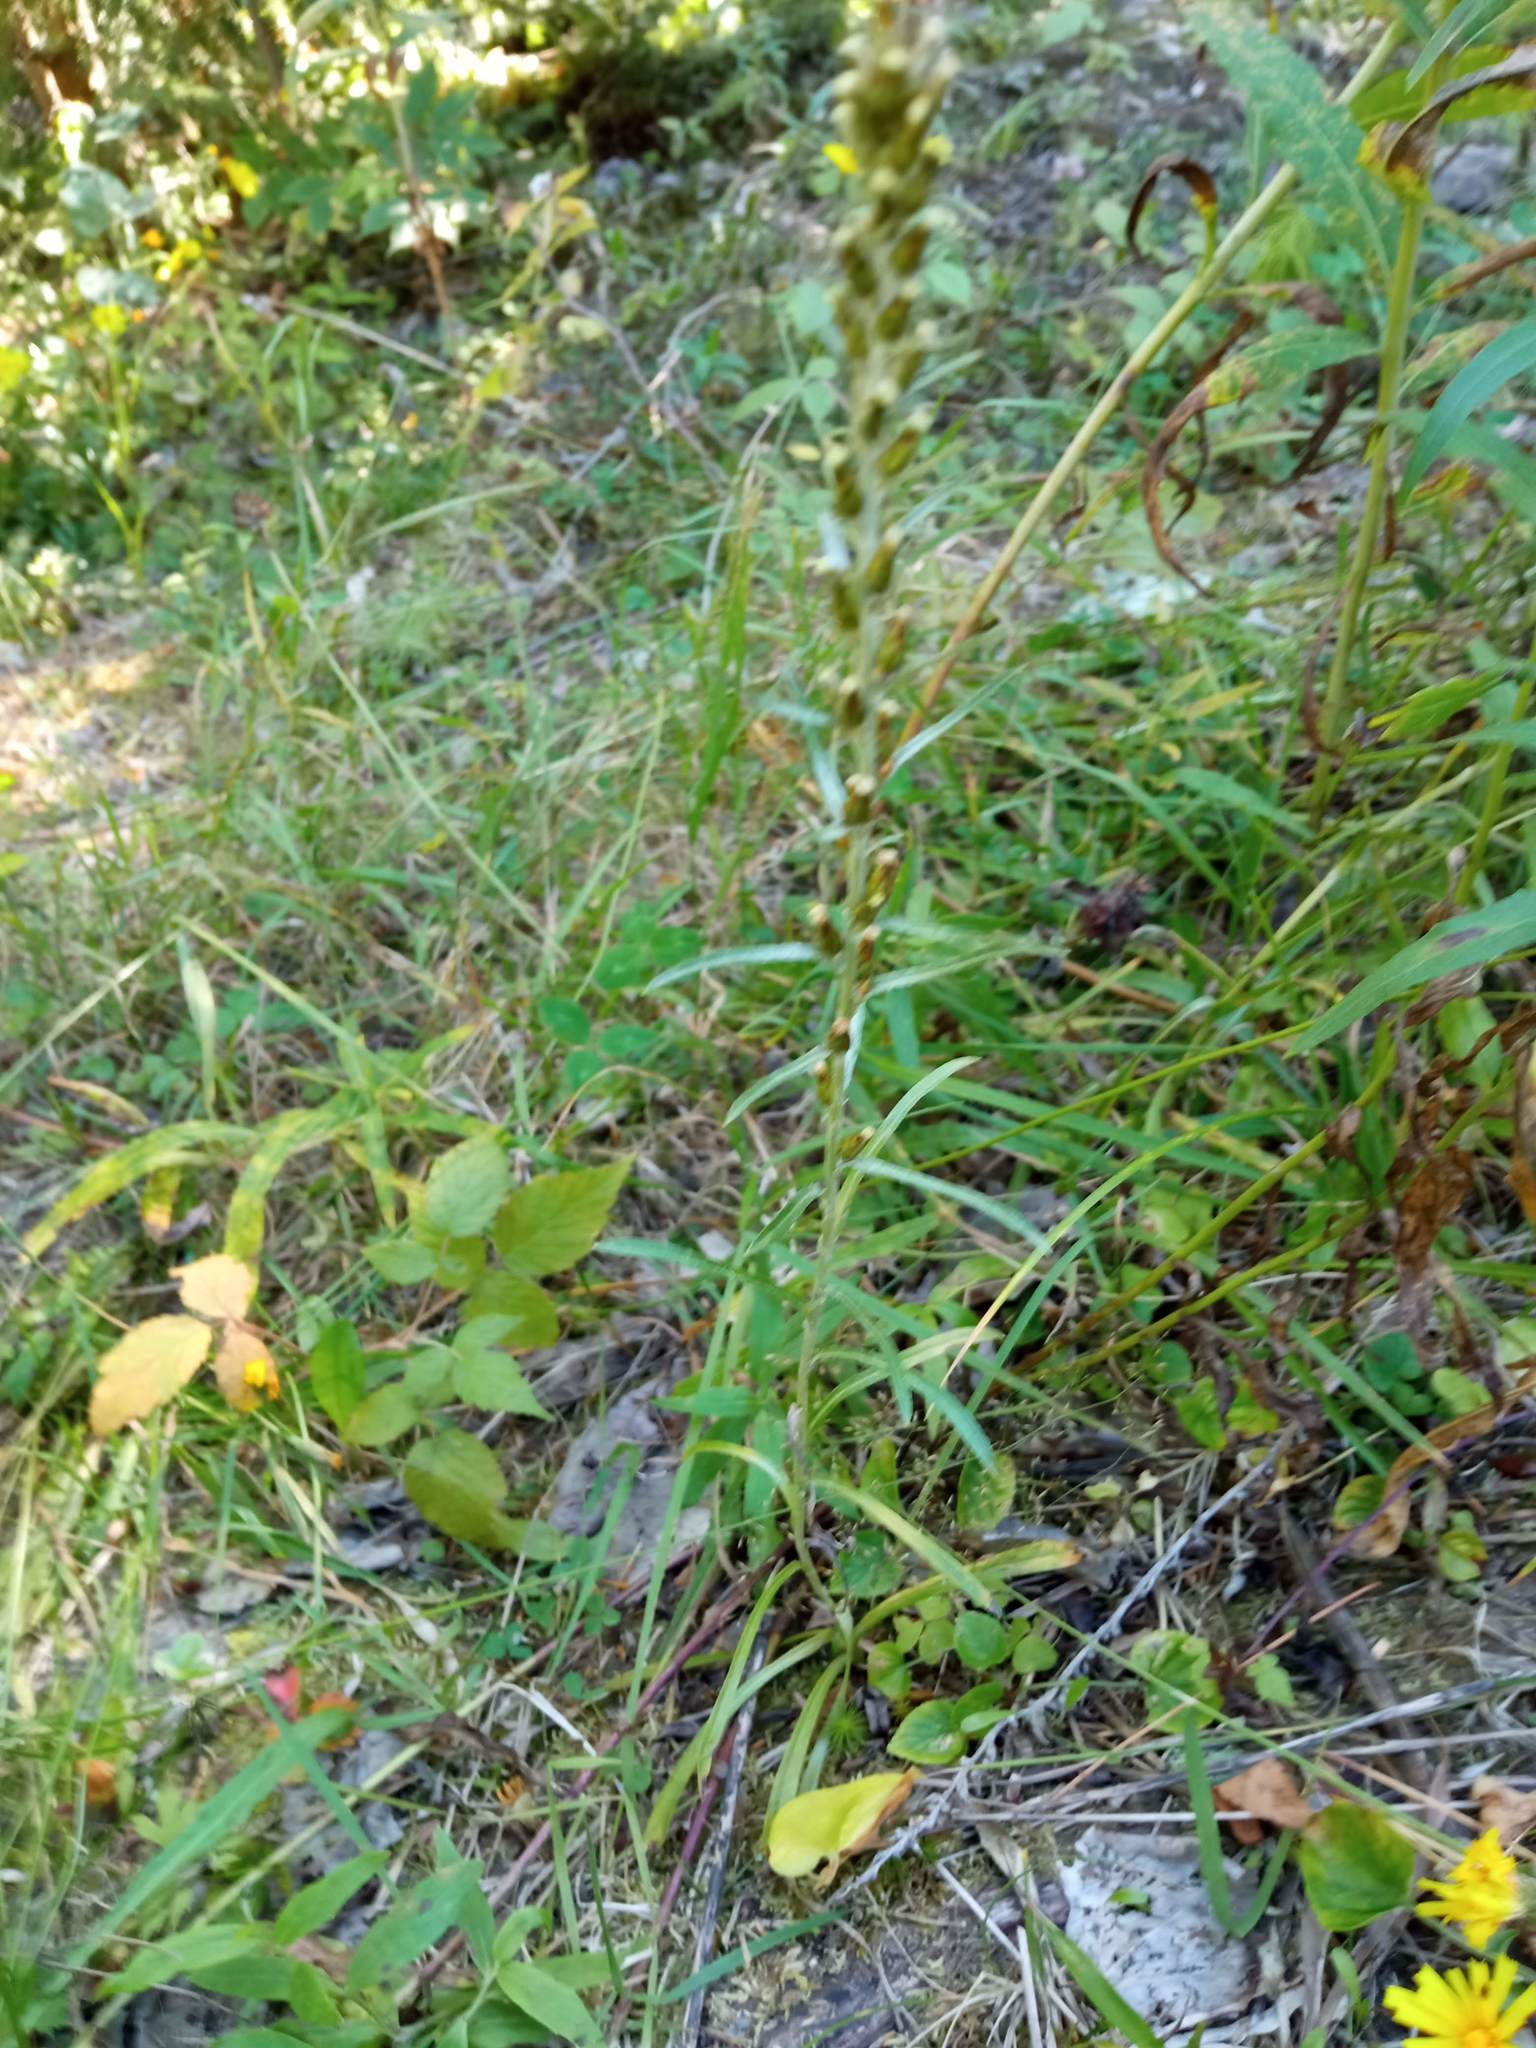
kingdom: Plantae
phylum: Tracheophyta
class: Magnoliopsida
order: Asterales
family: Asteraceae
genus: Omalotheca
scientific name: Omalotheca sylvatica
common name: Heath cudweed
